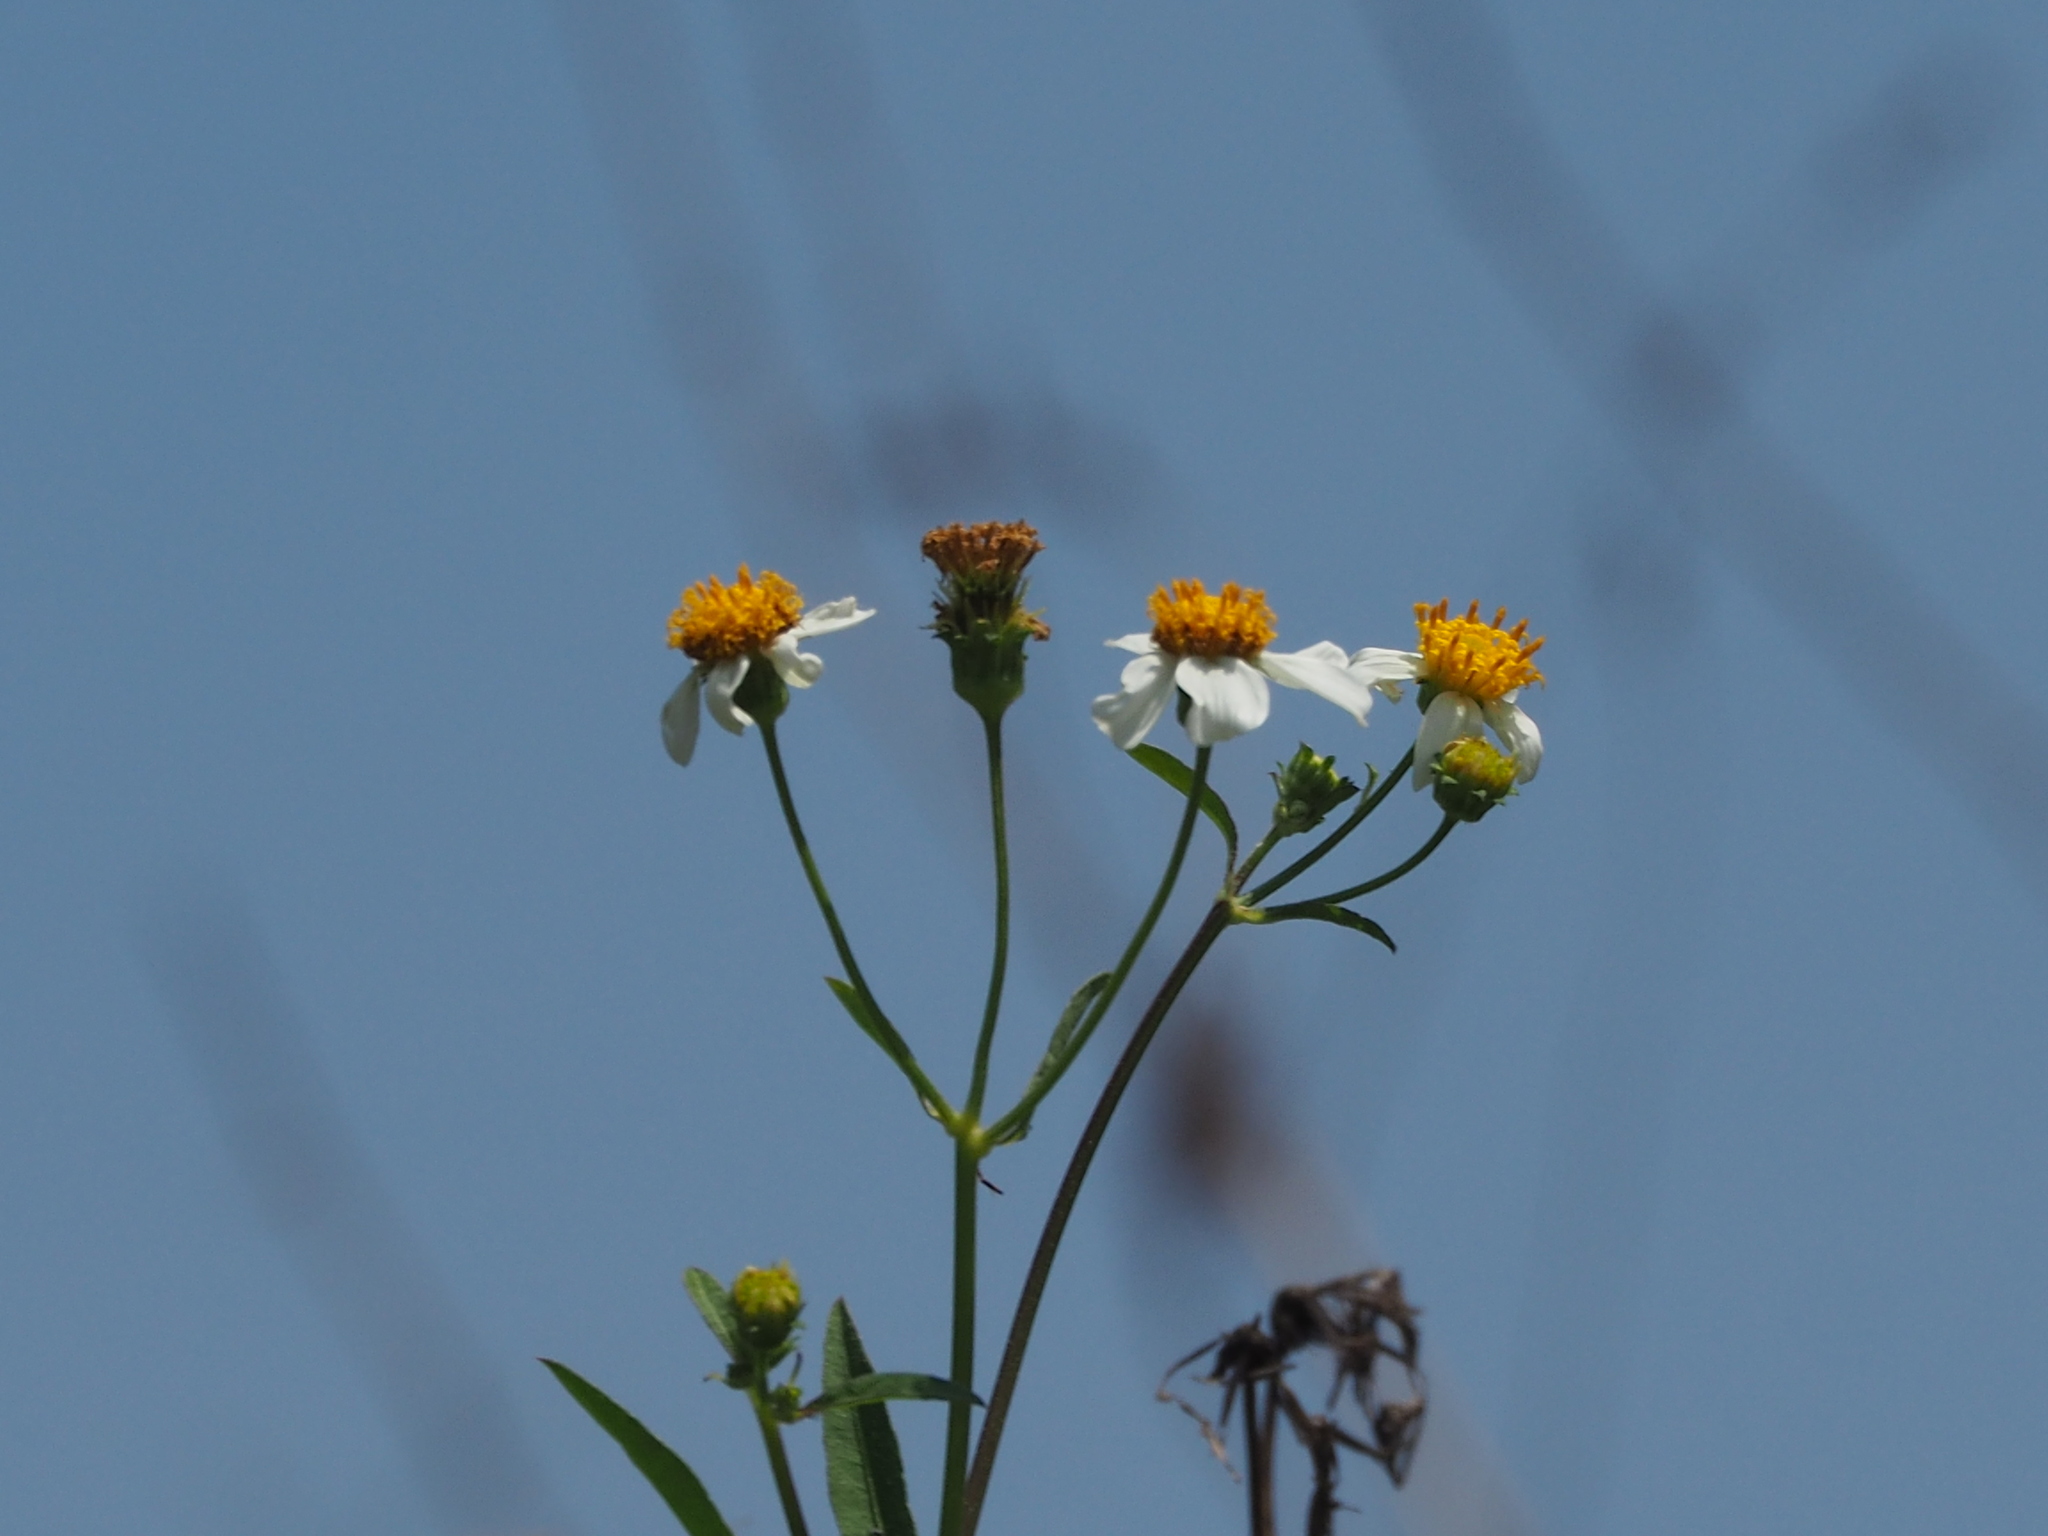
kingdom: Plantae
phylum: Tracheophyta
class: Magnoliopsida
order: Asterales
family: Asteraceae
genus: Bidens
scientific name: Bidens alba
